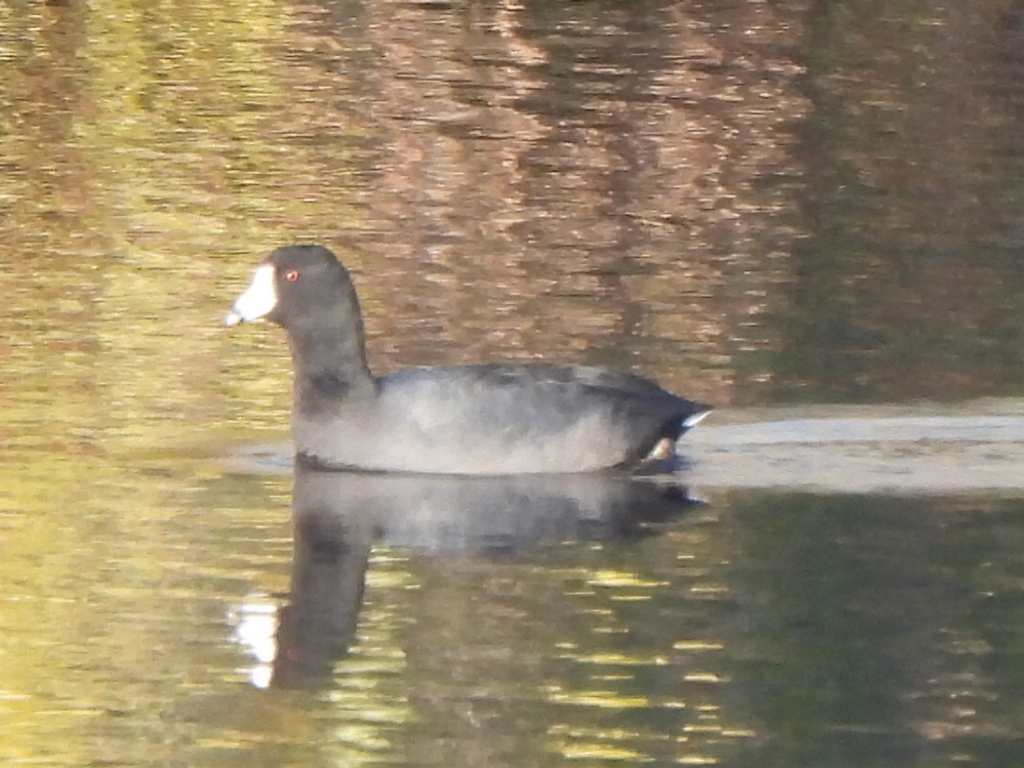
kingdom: Animalia
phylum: Chordata
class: Aves
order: Gruiformes
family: Rallidae
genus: Fulica
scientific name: Fulica americana
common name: American coot
